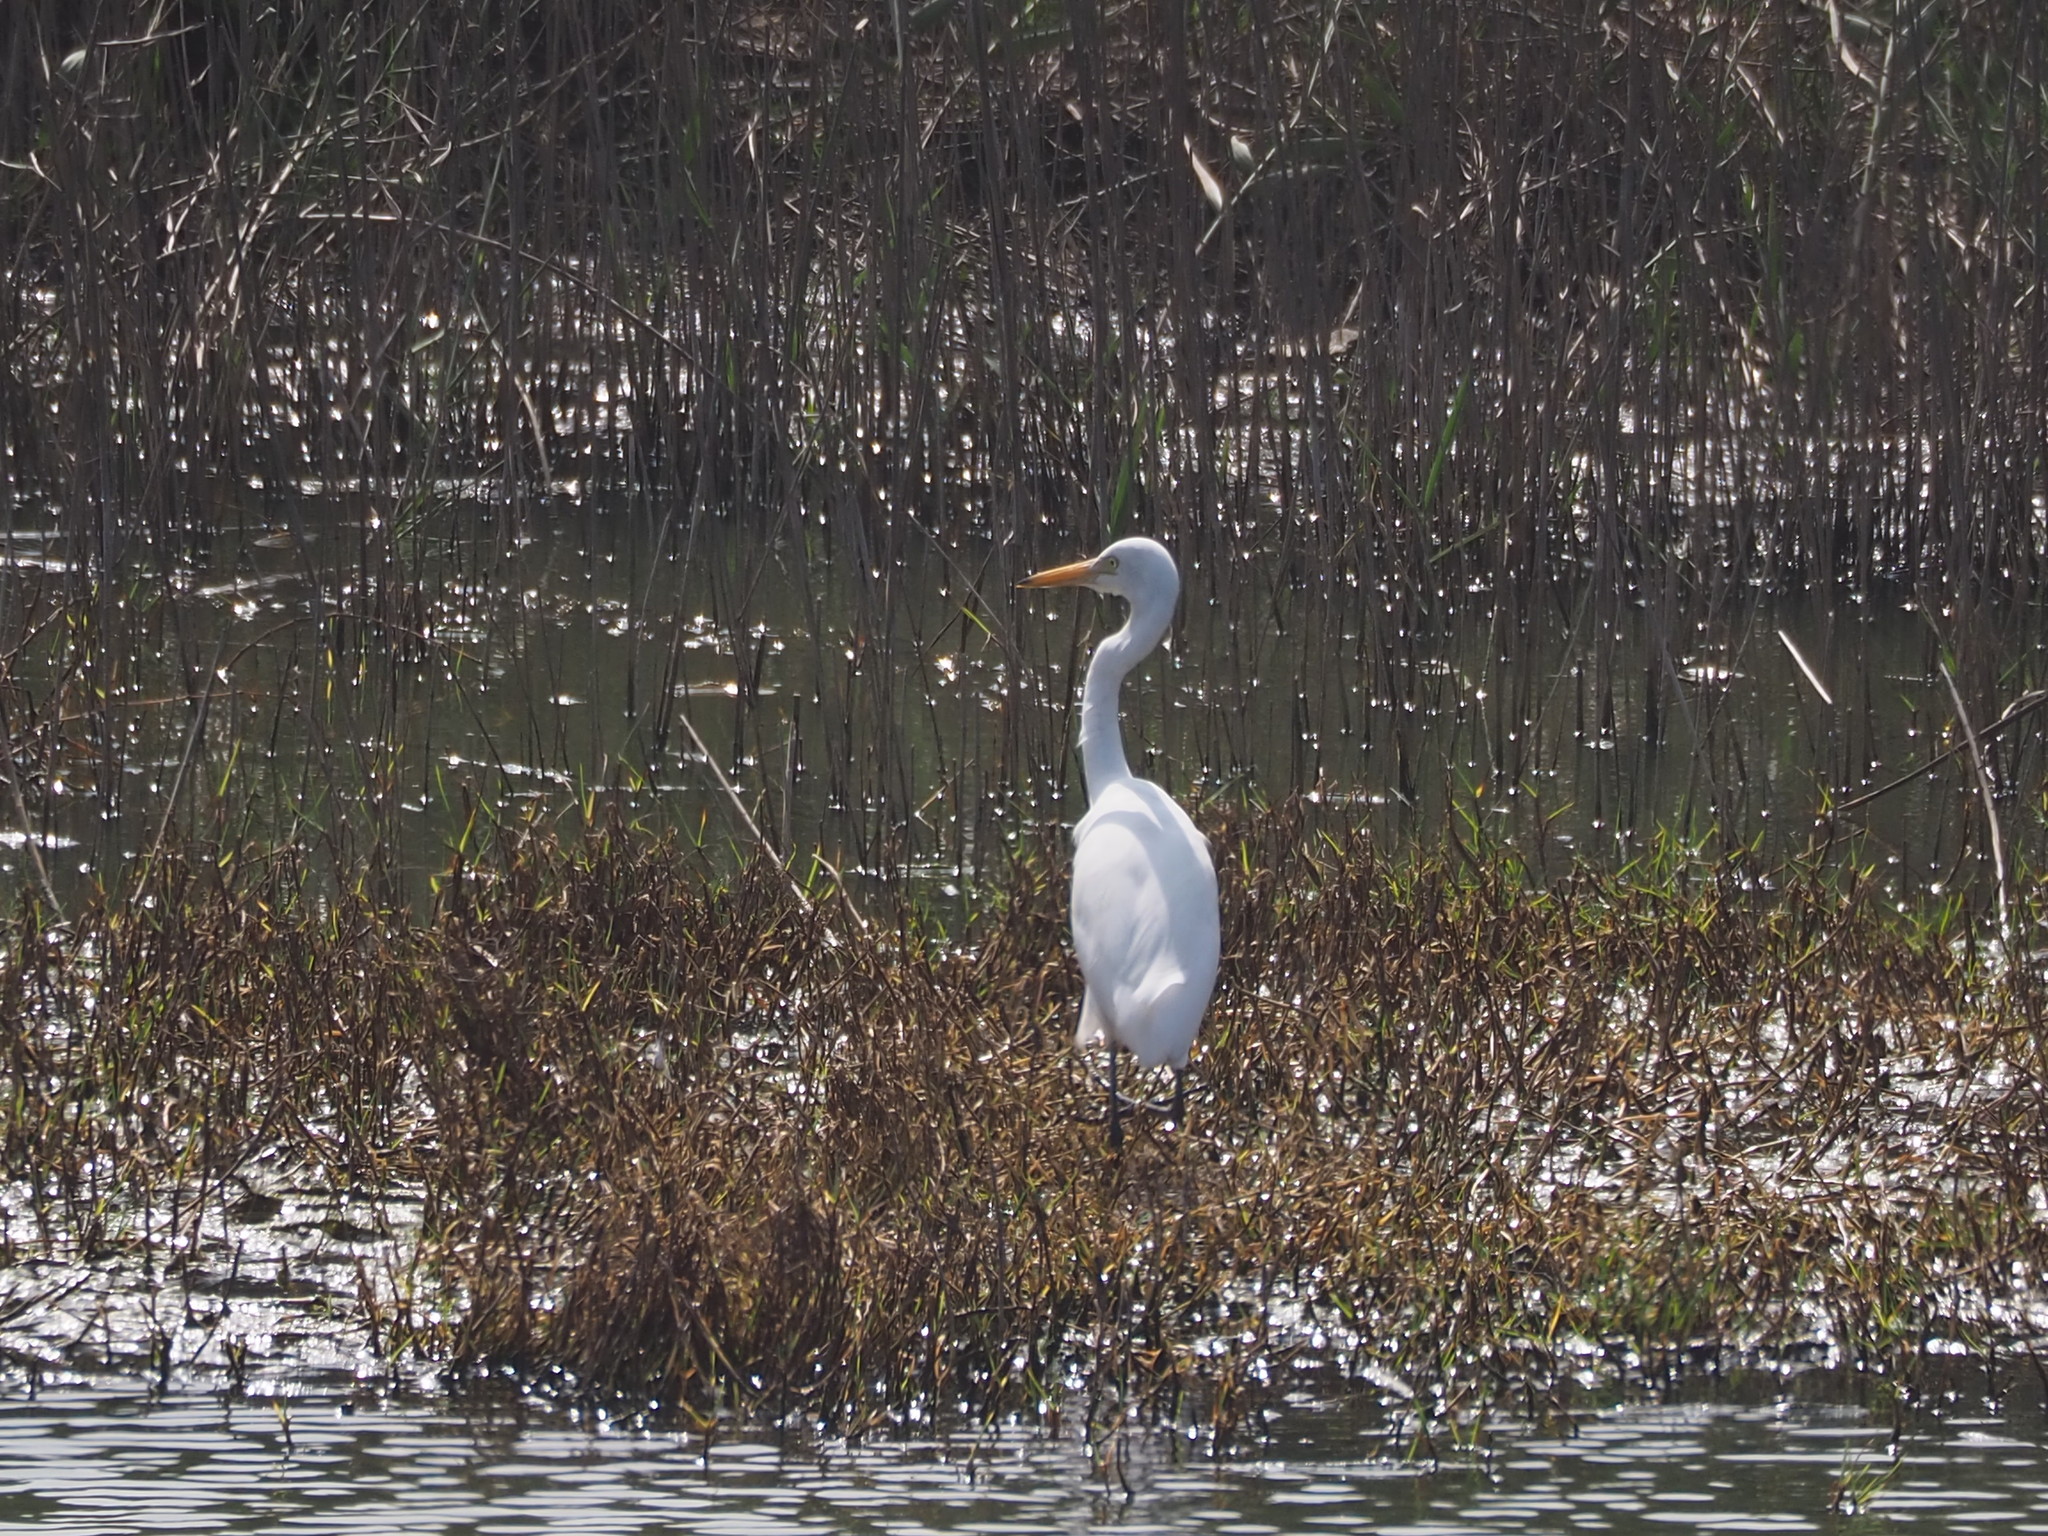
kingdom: Animalia
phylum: Chordata
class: Aves
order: Pelecaniformes
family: Ardeidae
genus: Egretta
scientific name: Egretta intermedia
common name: Intermediate egret
